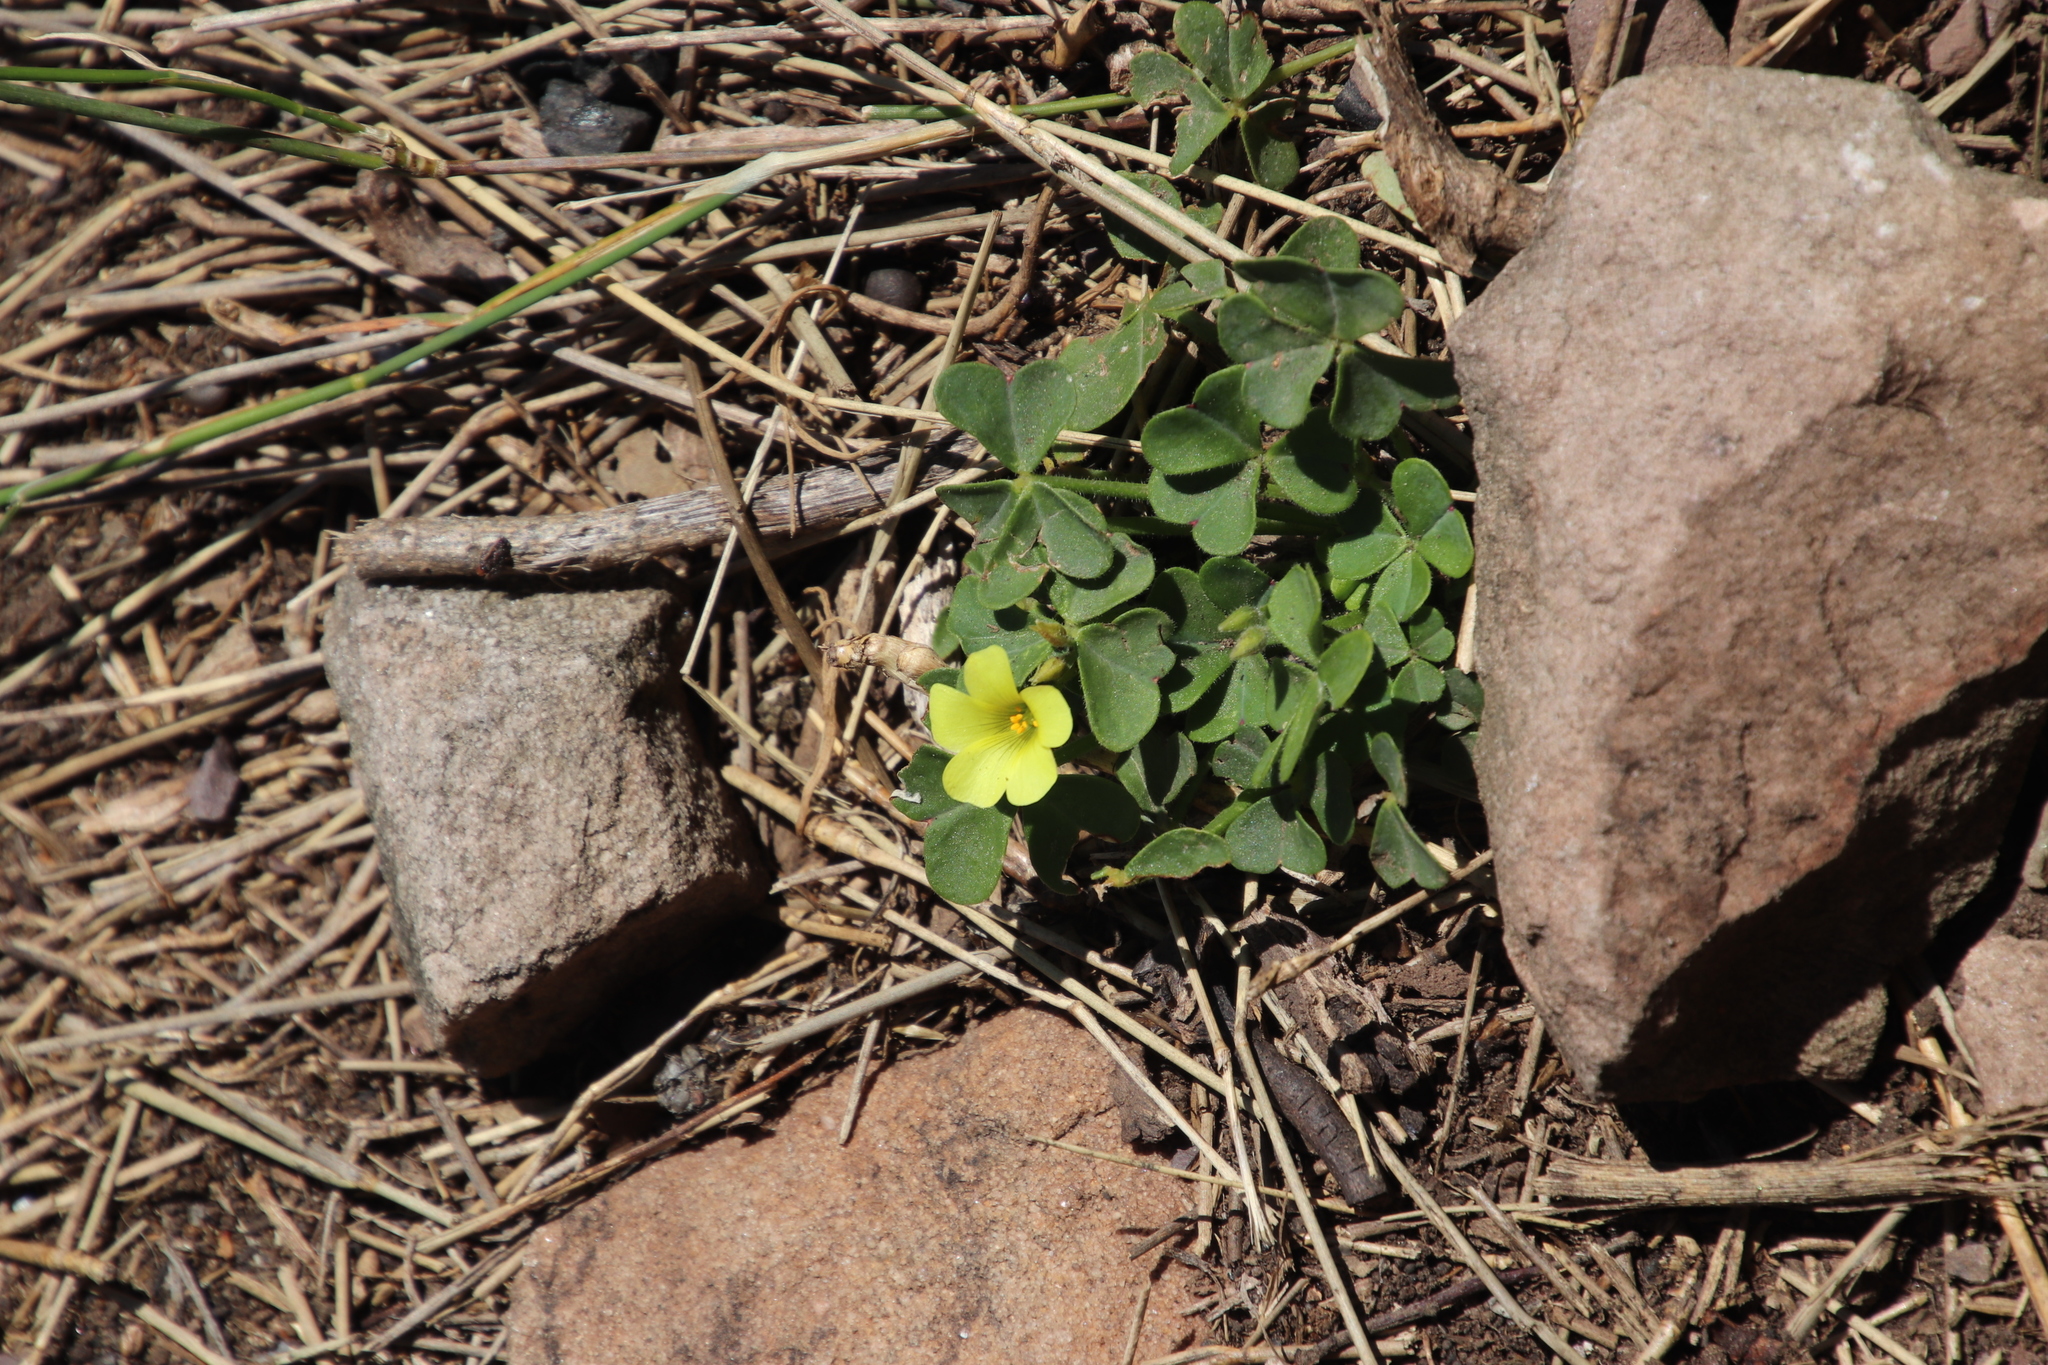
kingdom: Plantae
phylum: Tracheophyta
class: Magnoliopsida
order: Oxalidales
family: Oxalidaceae
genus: Oxalis
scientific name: Oxalis pes-caprae
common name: Bermuda-buttercup
